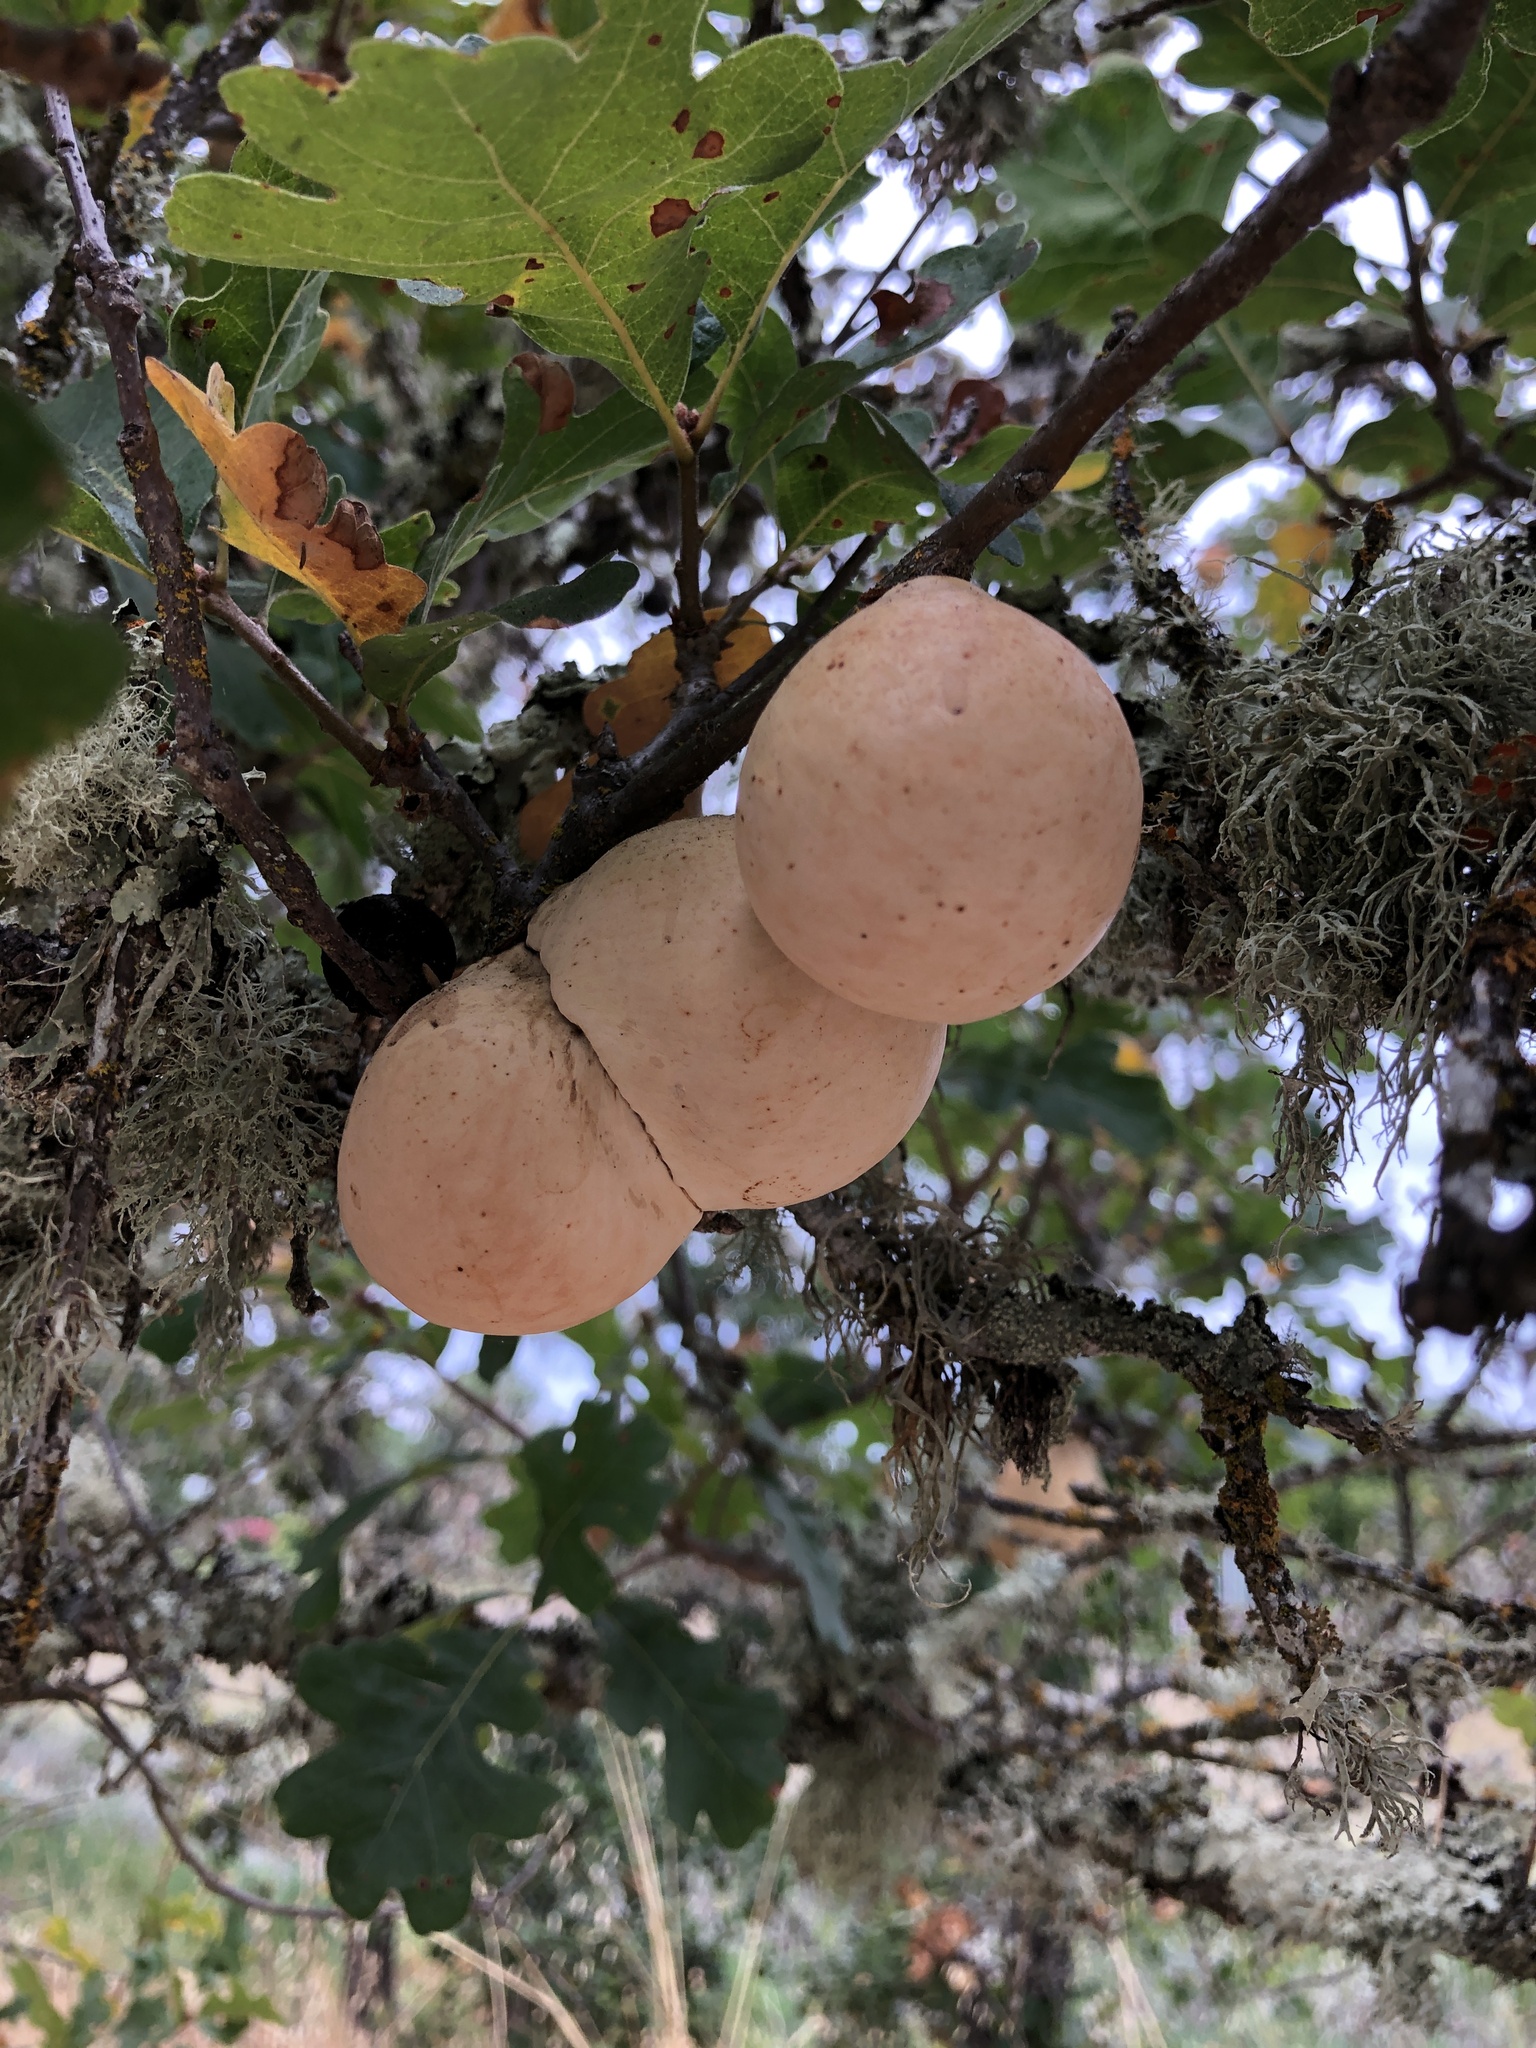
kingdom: Animalia
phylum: Arthropoda
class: Insecta
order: Hymenoptera
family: Cynipidae
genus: Andricus
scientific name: Andricus quercuscalifornicus
